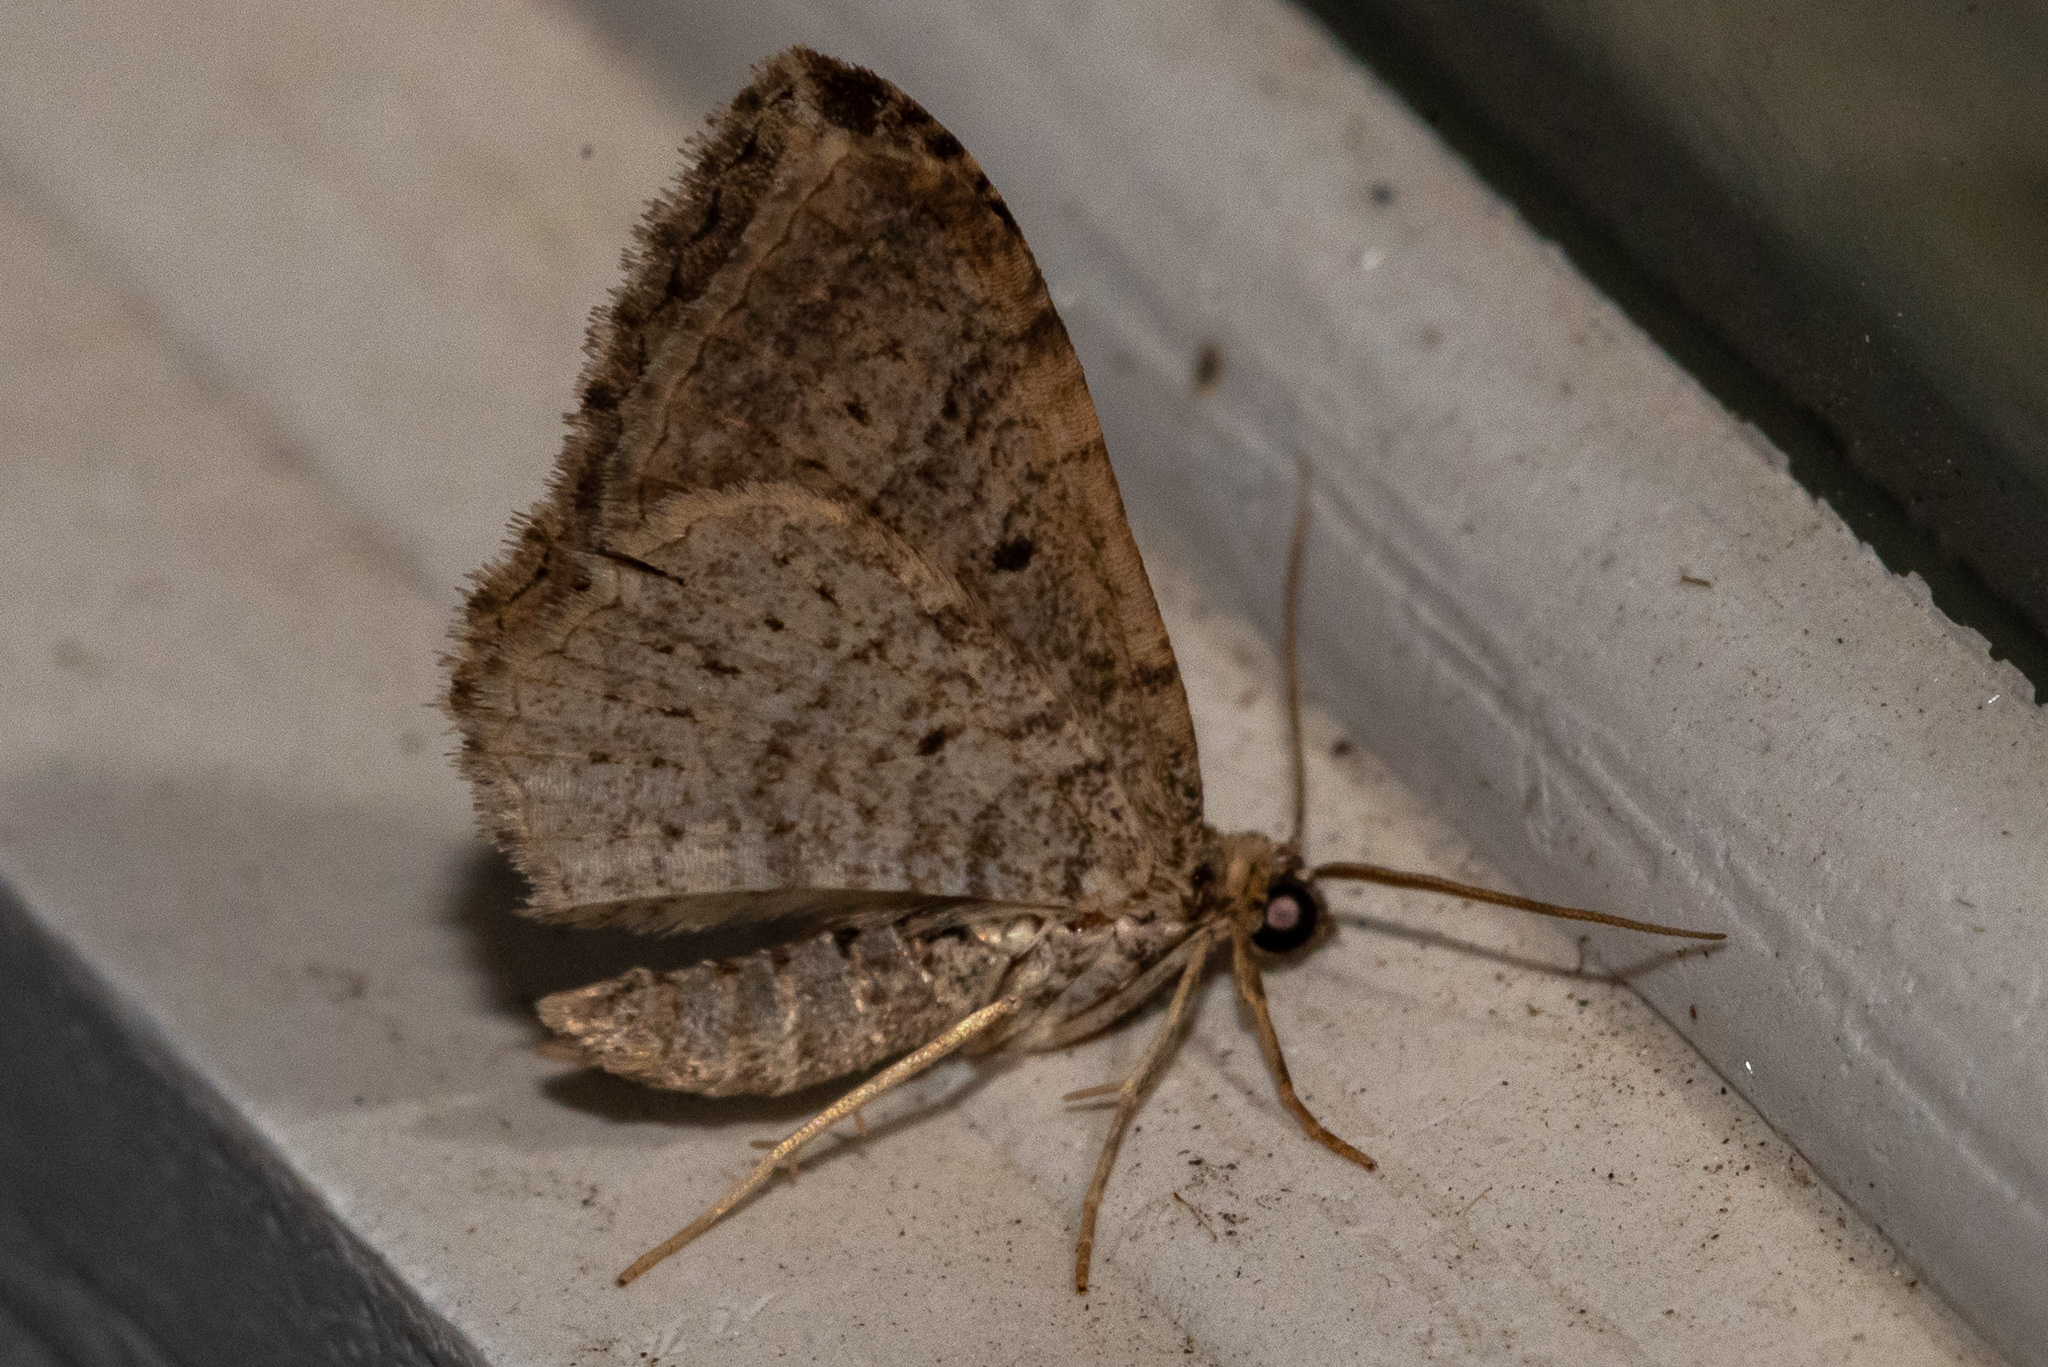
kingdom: Animalia
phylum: Arthropoda
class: Insecta
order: Lepidoptera
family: Geometridae
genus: Costaconvexa
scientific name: Costaconvexa centrostrigaria
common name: Bent-line carpet
